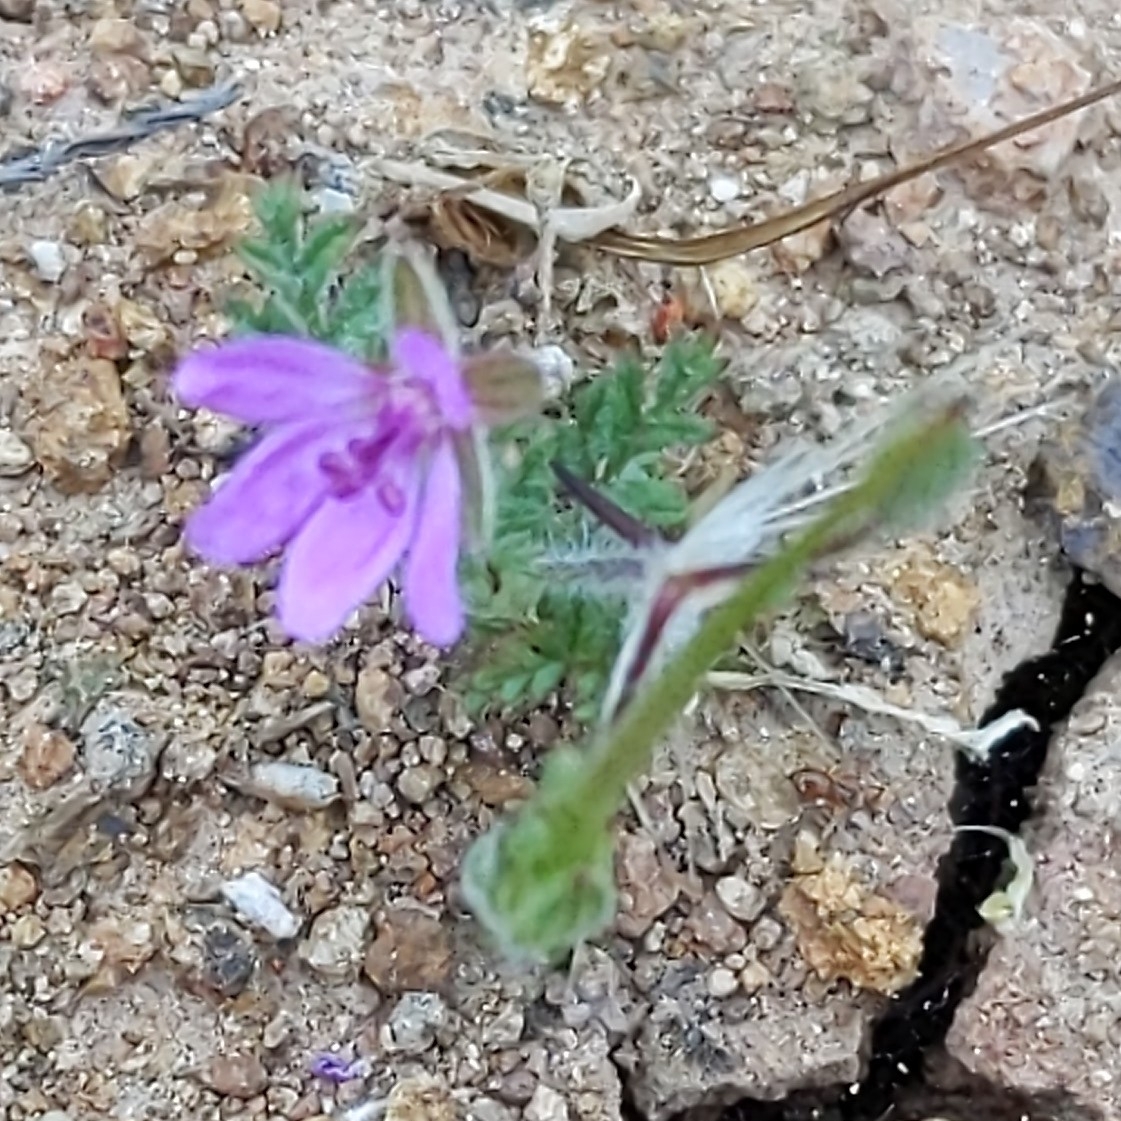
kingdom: Plantae
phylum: Tracheophyta
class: Magnoliopsida
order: Geraniales
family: Geraniaceae
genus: Erodium
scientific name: Erodium cicutarium
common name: Common stork's-bill
